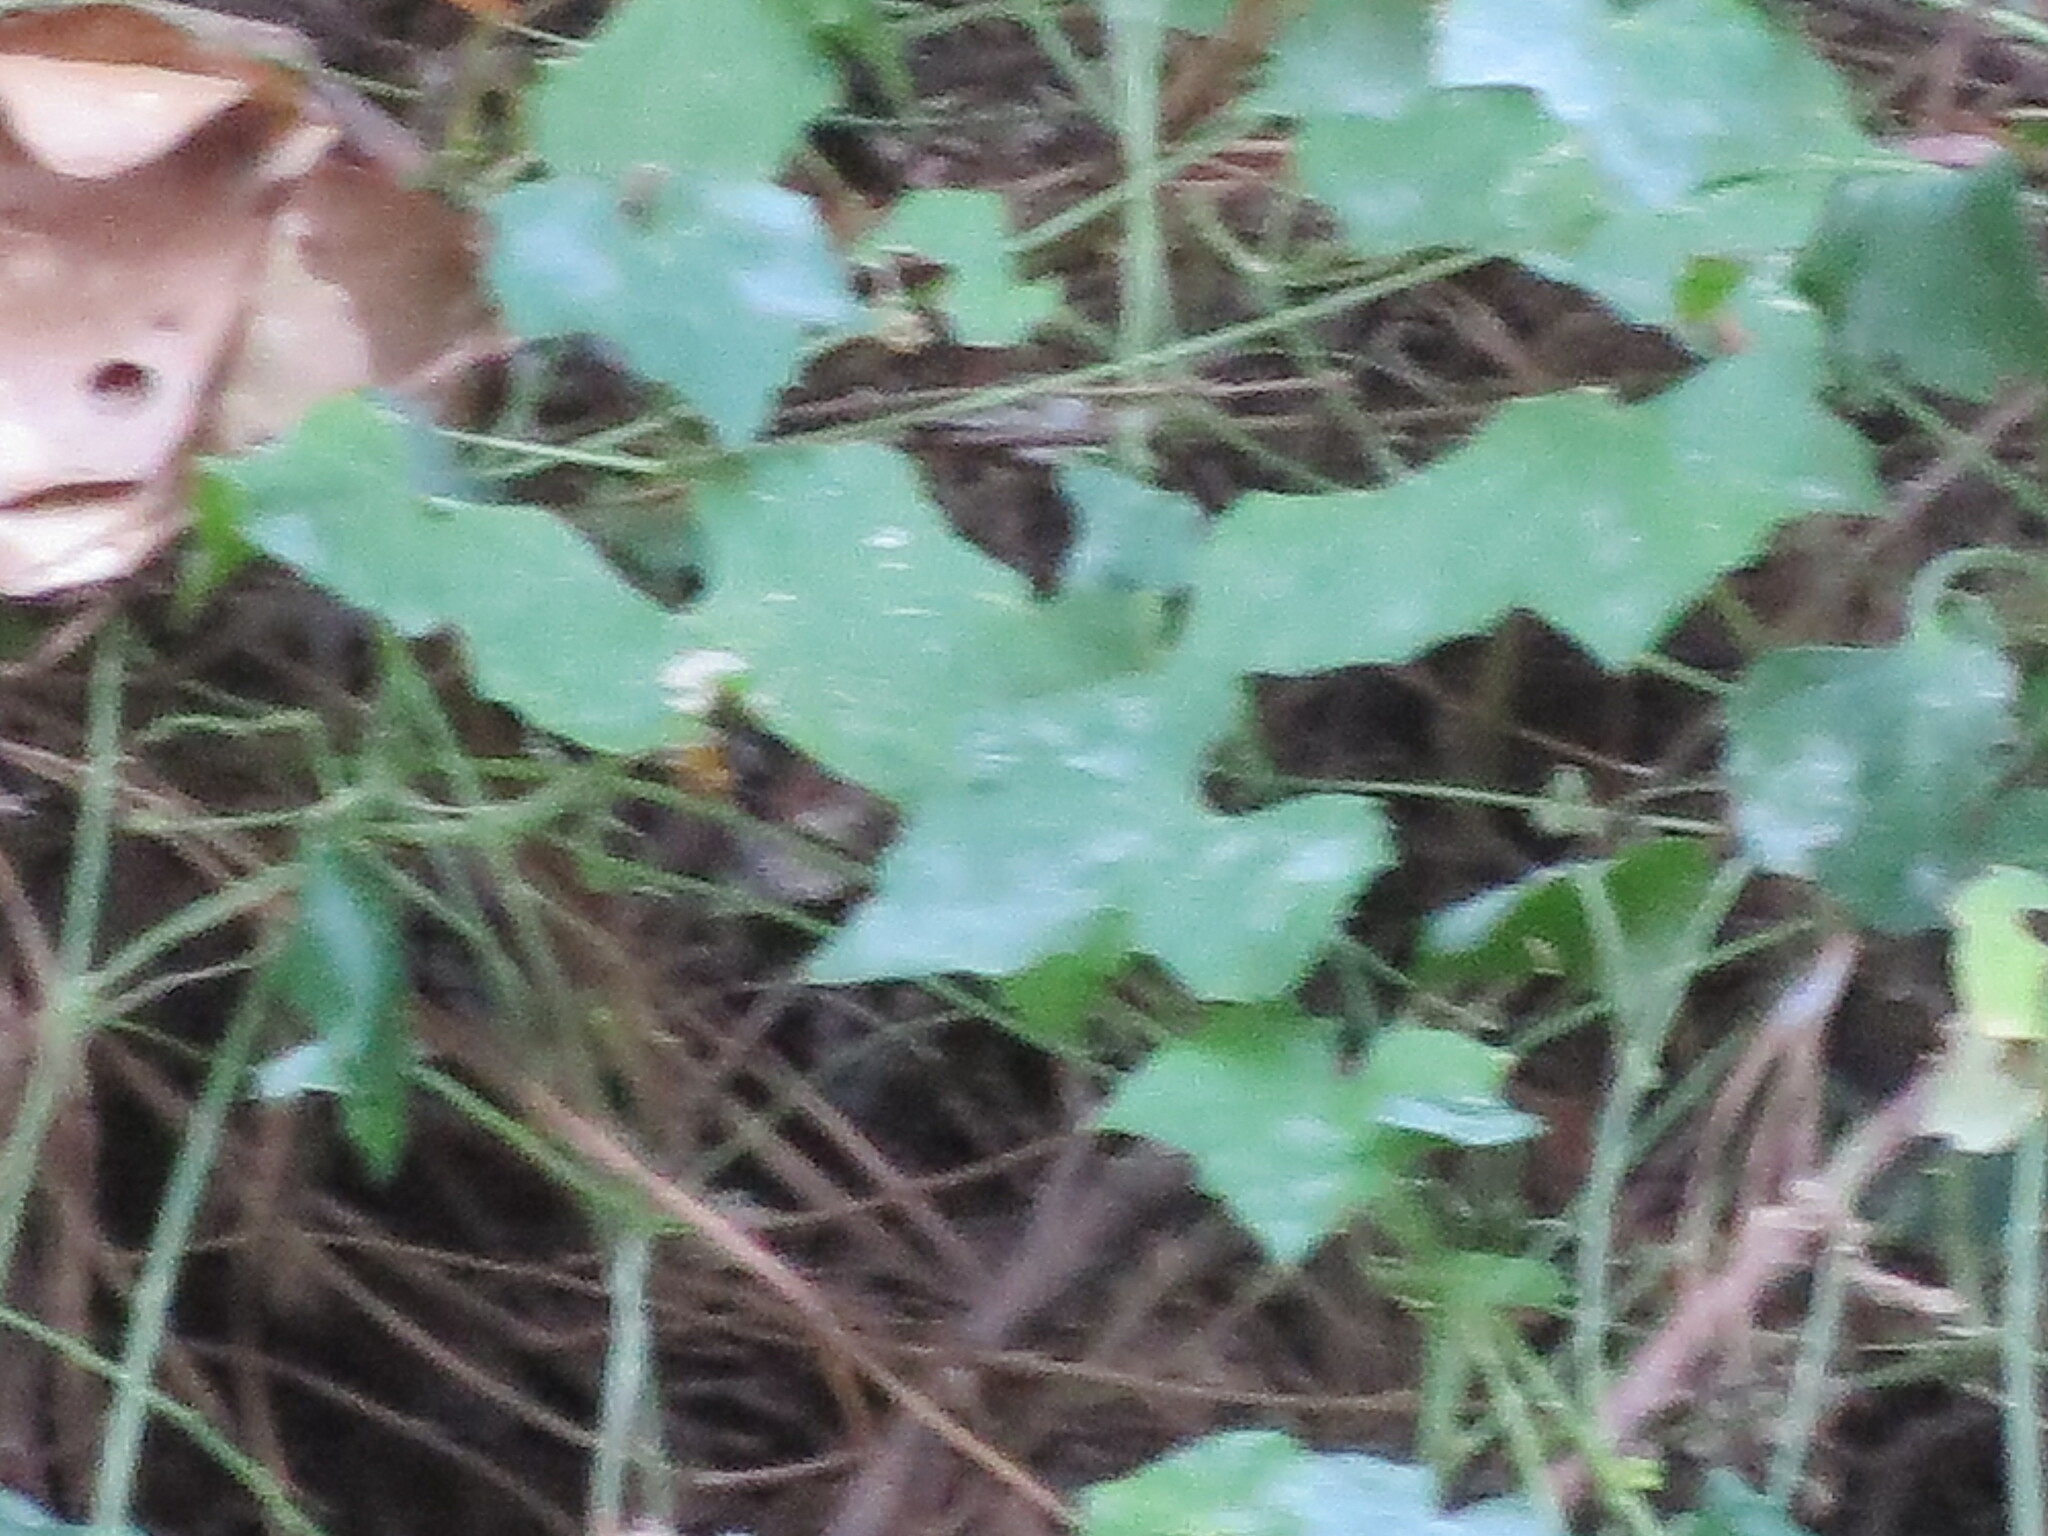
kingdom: Plantae
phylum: Tracheophyta
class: Magnoliopsida
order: Cucurbitales
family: Cucurbitaceae
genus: Melothria
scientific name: Melothria pendula
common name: Creeping-cucumber
